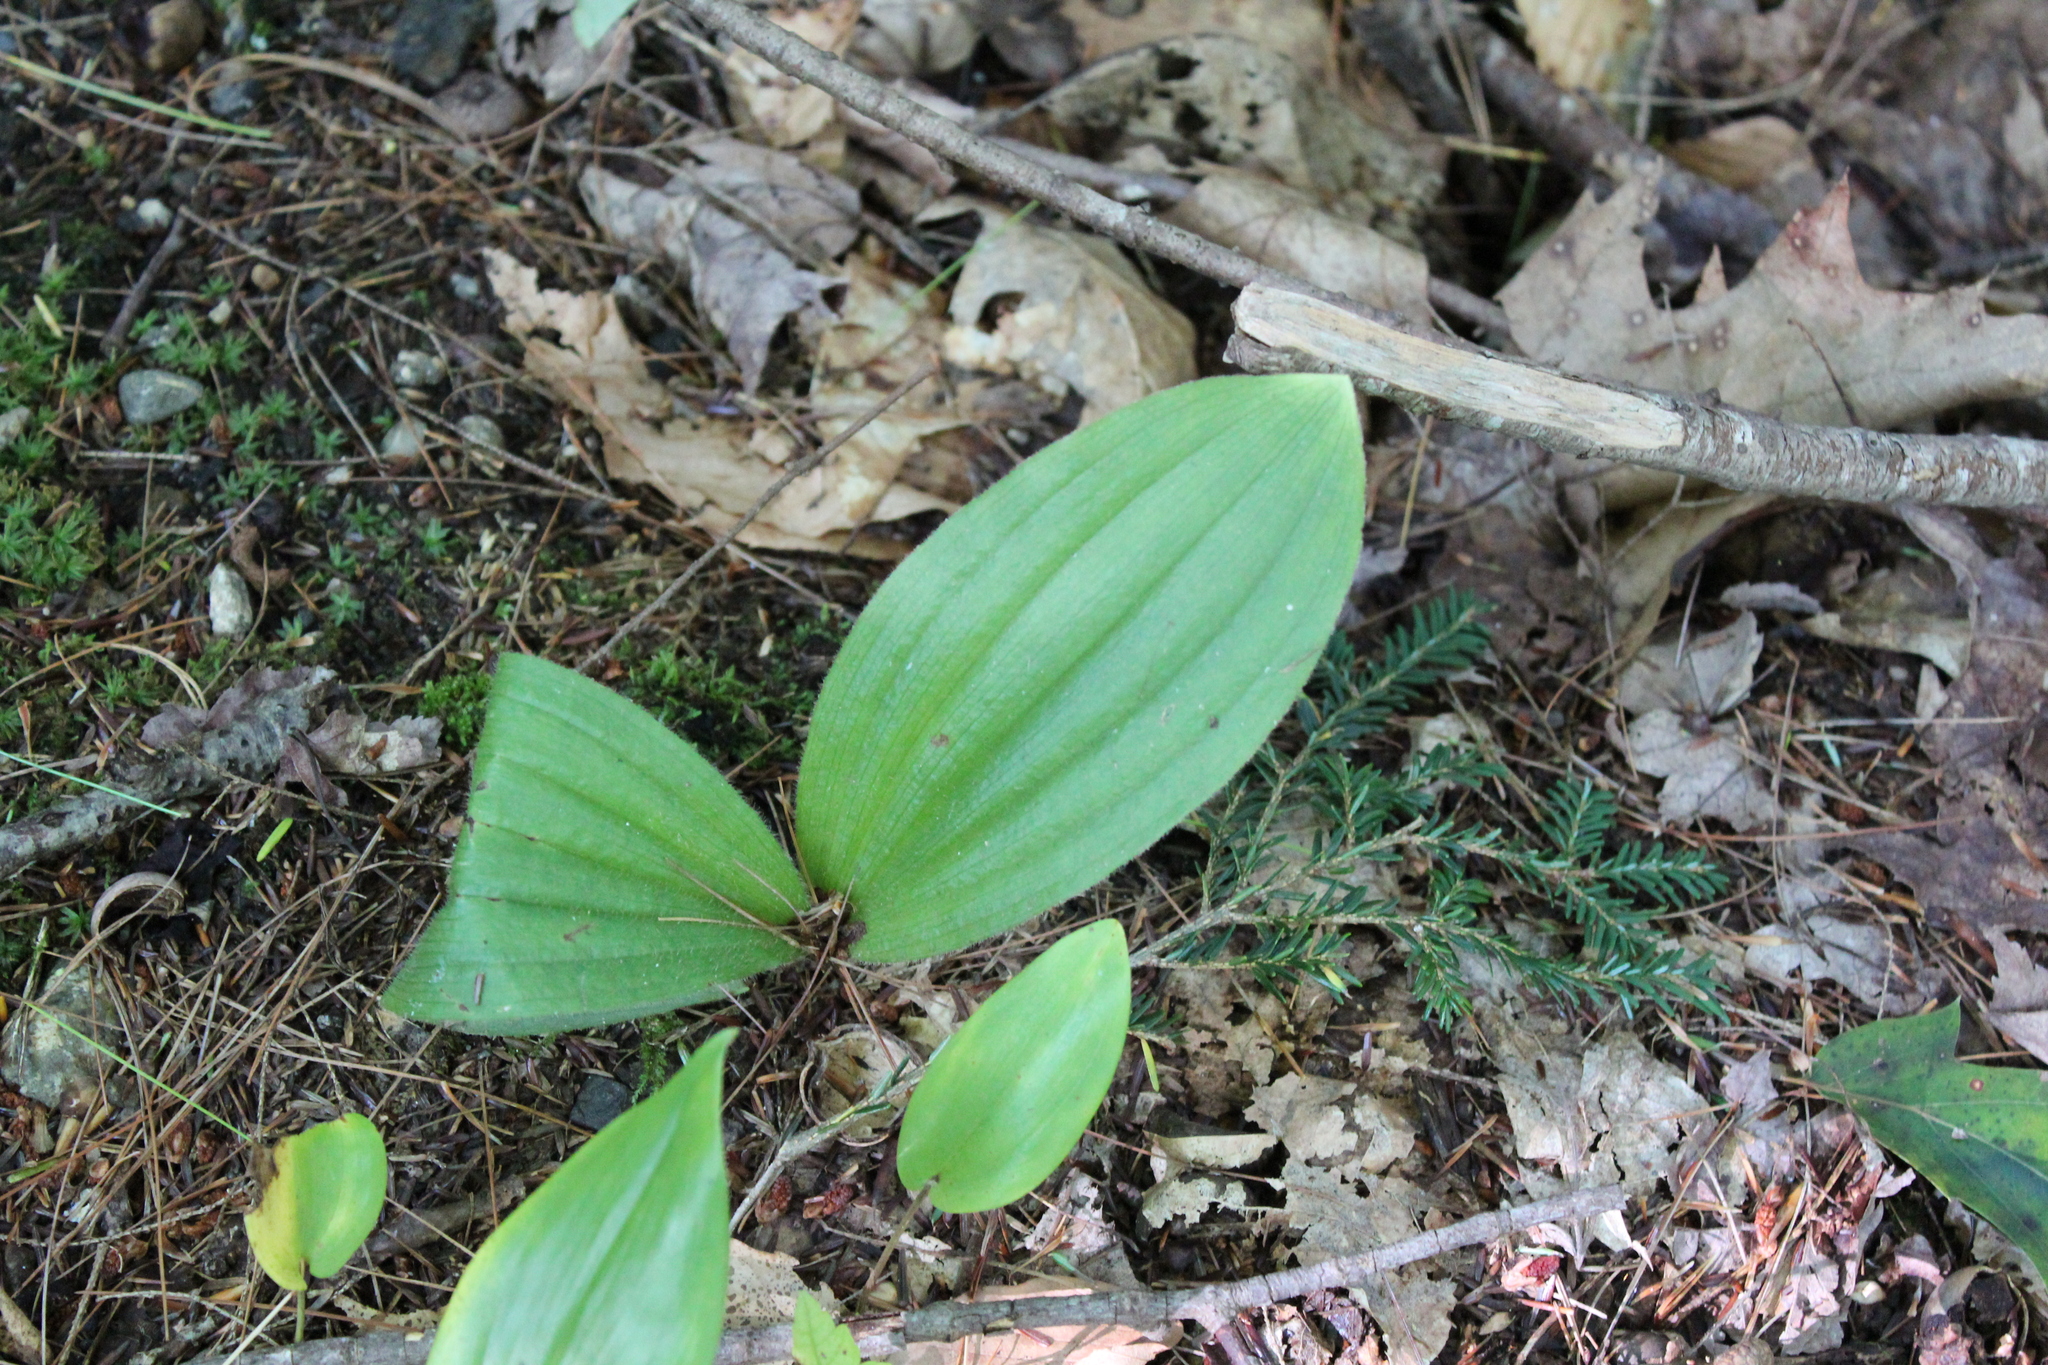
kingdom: Plantae
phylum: Tracheophyta
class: Liliopsida
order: Asparagales
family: Orchidaceae
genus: Cypripedium
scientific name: Cypripedium acaule
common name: Pink lady's-slipper
